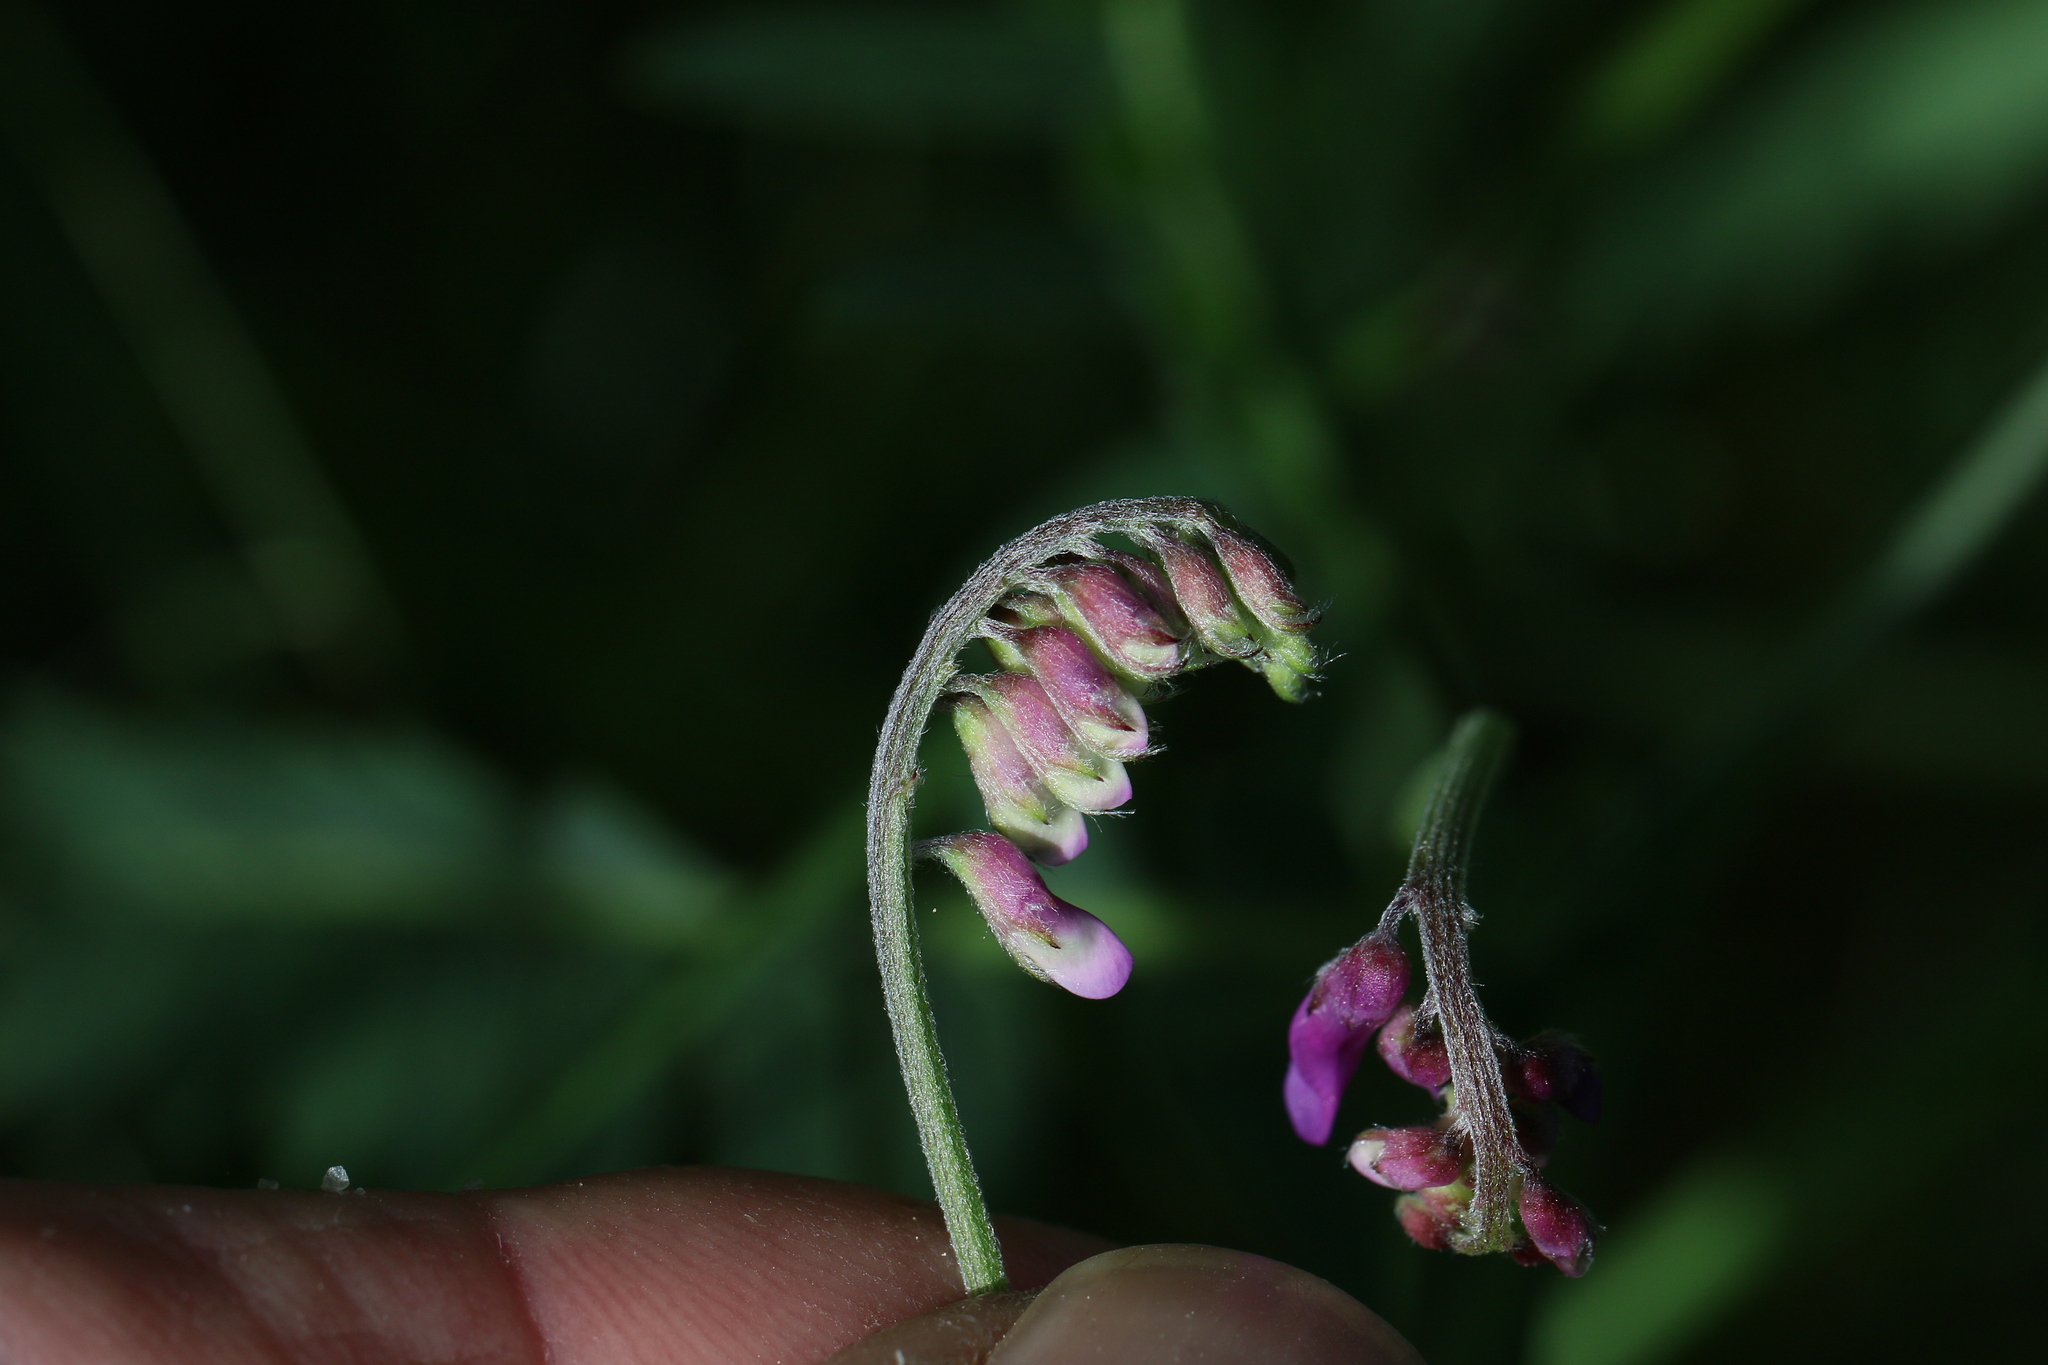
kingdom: Plantae
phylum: Tracheophyta
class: Magnoliopsida
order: Fabales
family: Fabaceae
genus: Vicia
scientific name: Vicia cracca
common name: Bird vetch
